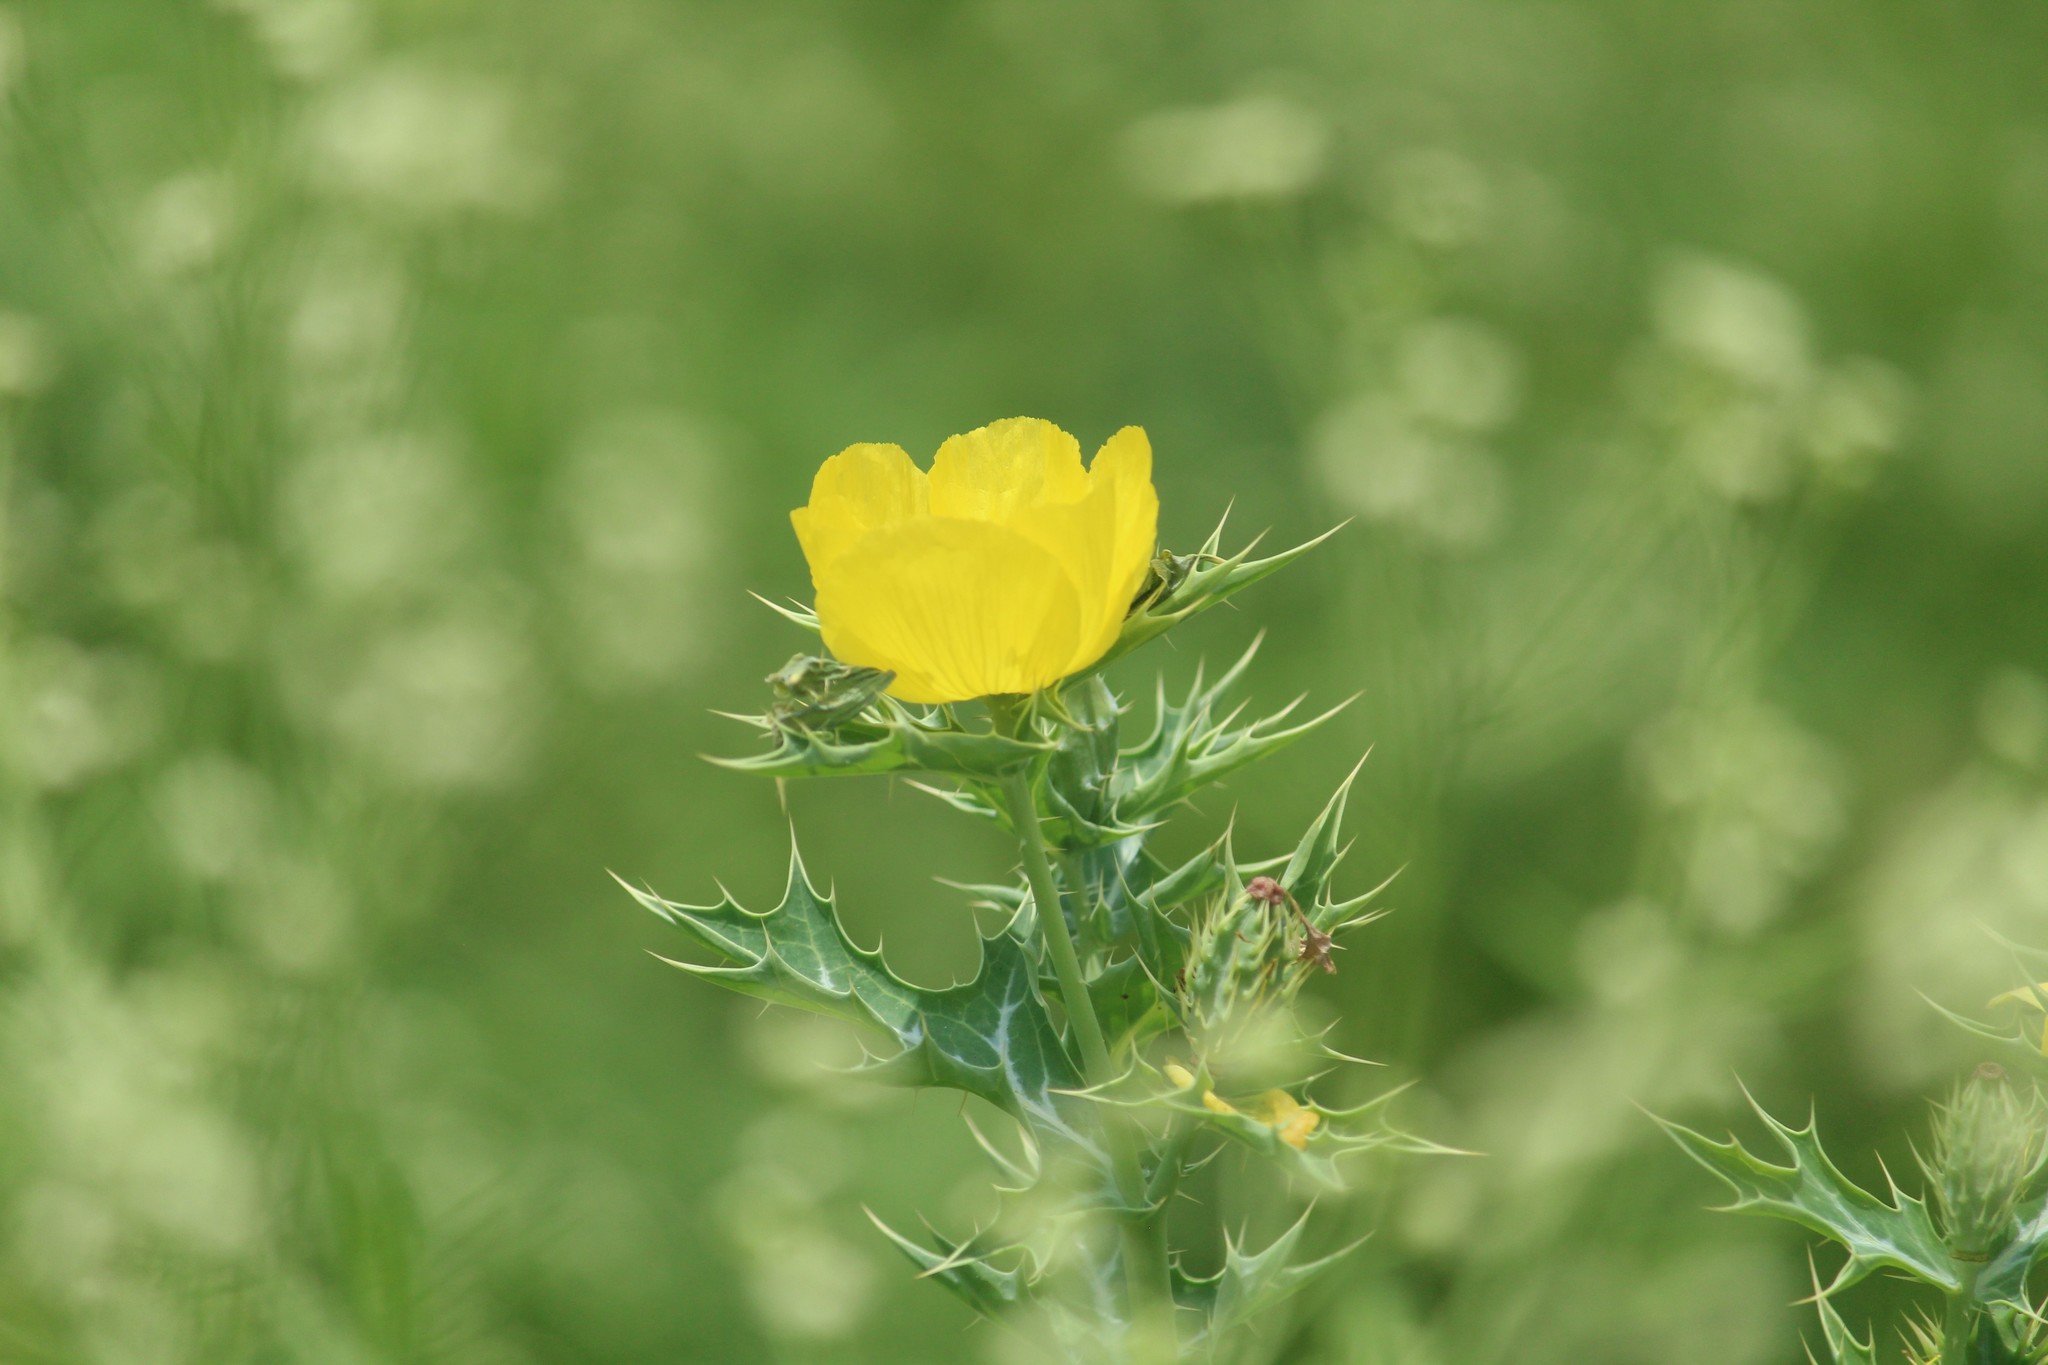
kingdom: Plantae
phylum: Tracheophyta
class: Magnoliopsida
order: Ranunculales
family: Papaveraceae
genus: Argemone
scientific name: Argemone mexicana
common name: Mexican poppy
